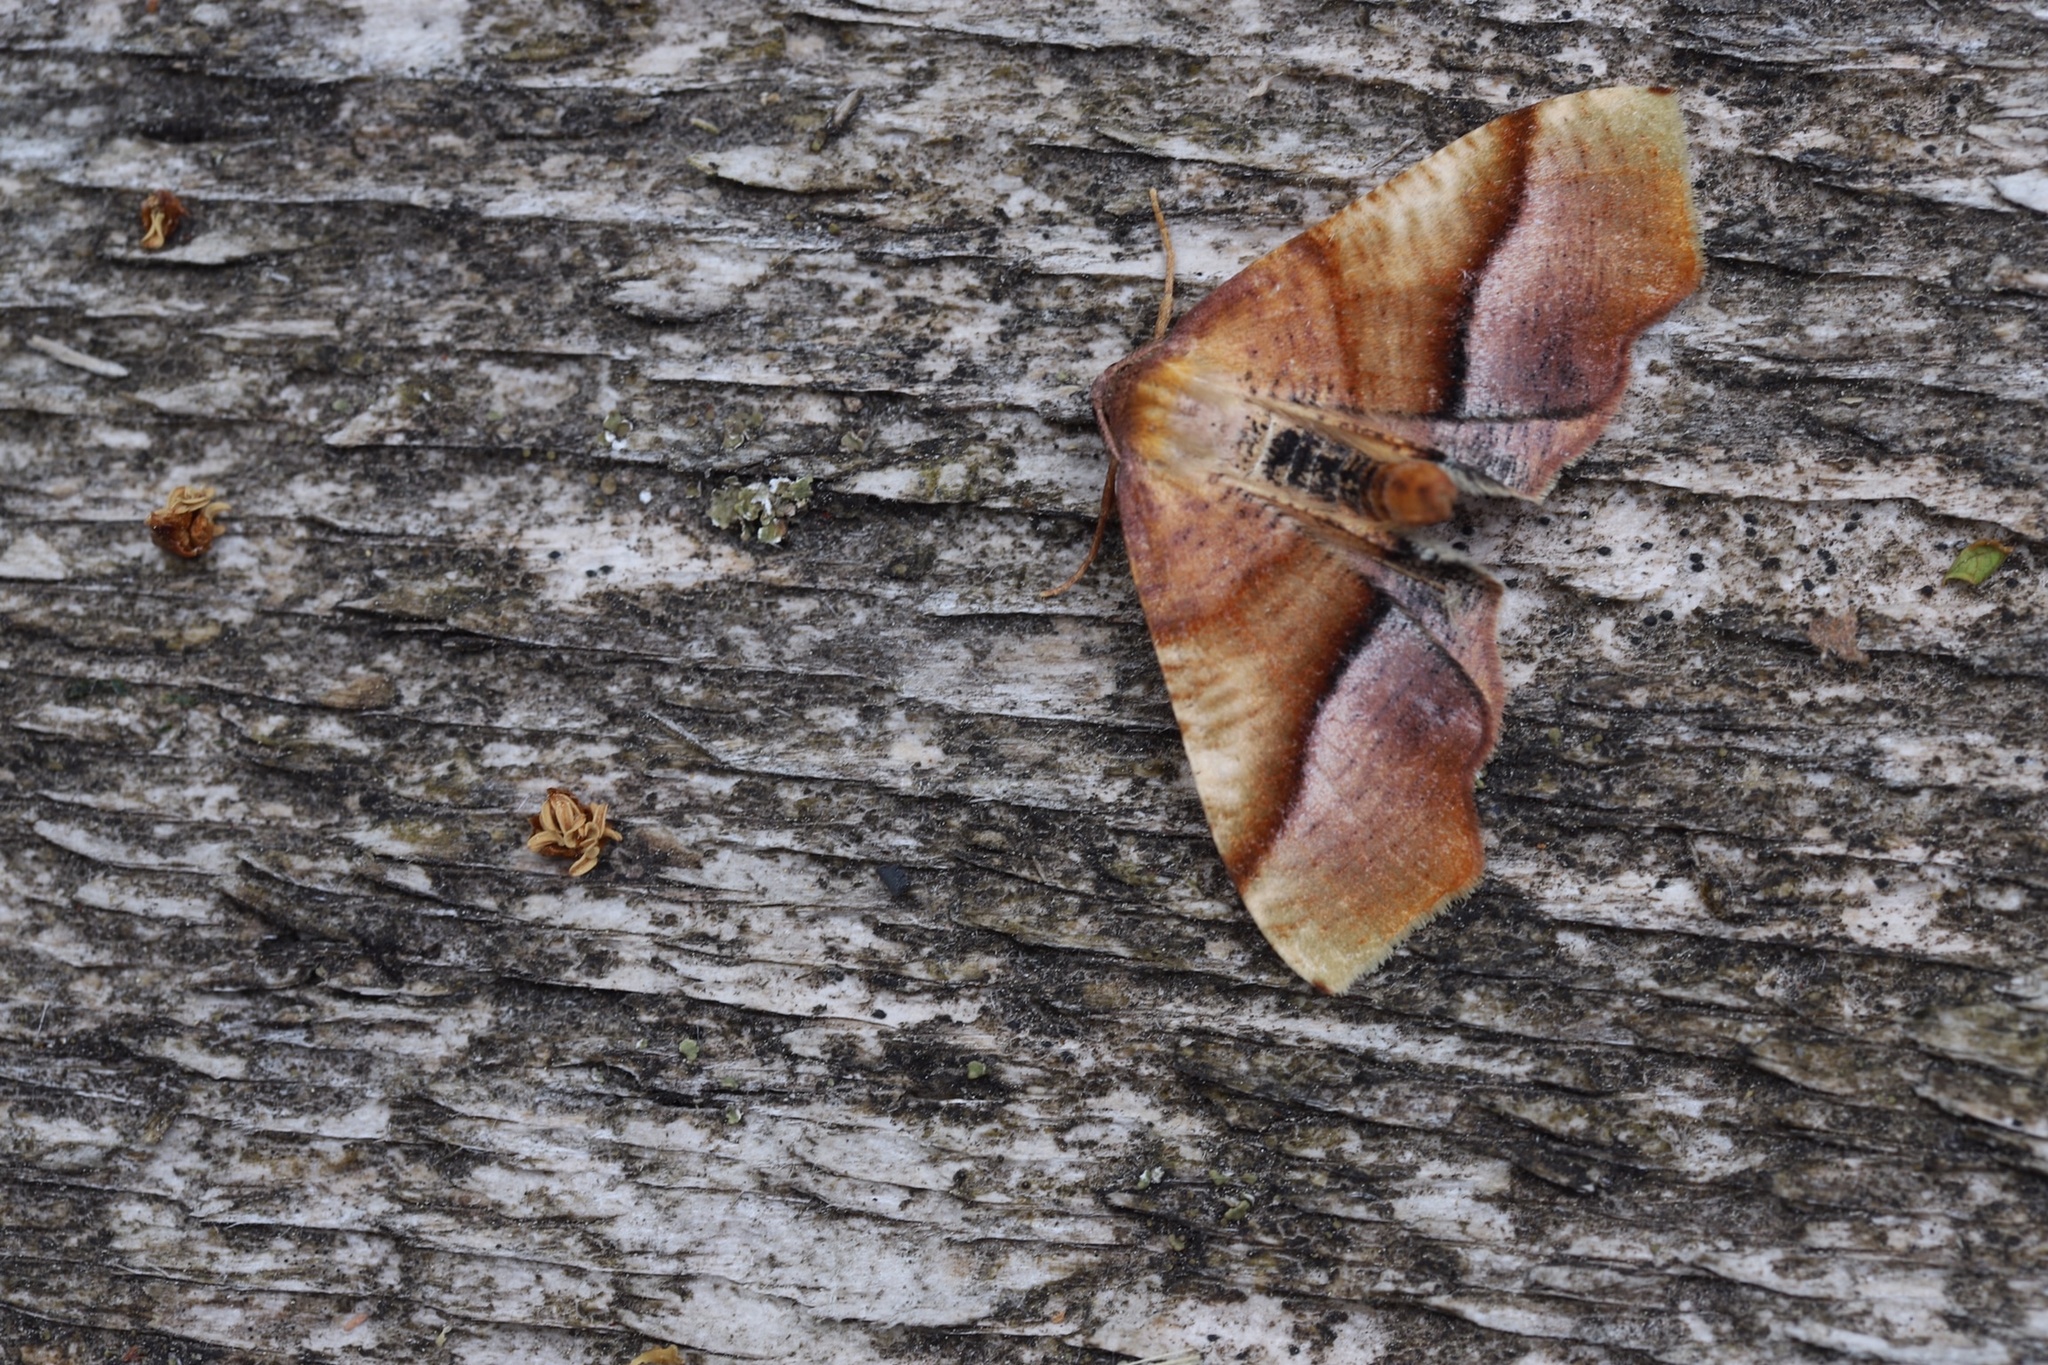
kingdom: Animalia
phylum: Arthropoda
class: Insecta
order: Lepidoptera
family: Geometridae
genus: Plagodis
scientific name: Plagodis phlogosaria
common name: Straight-lined plagodis
